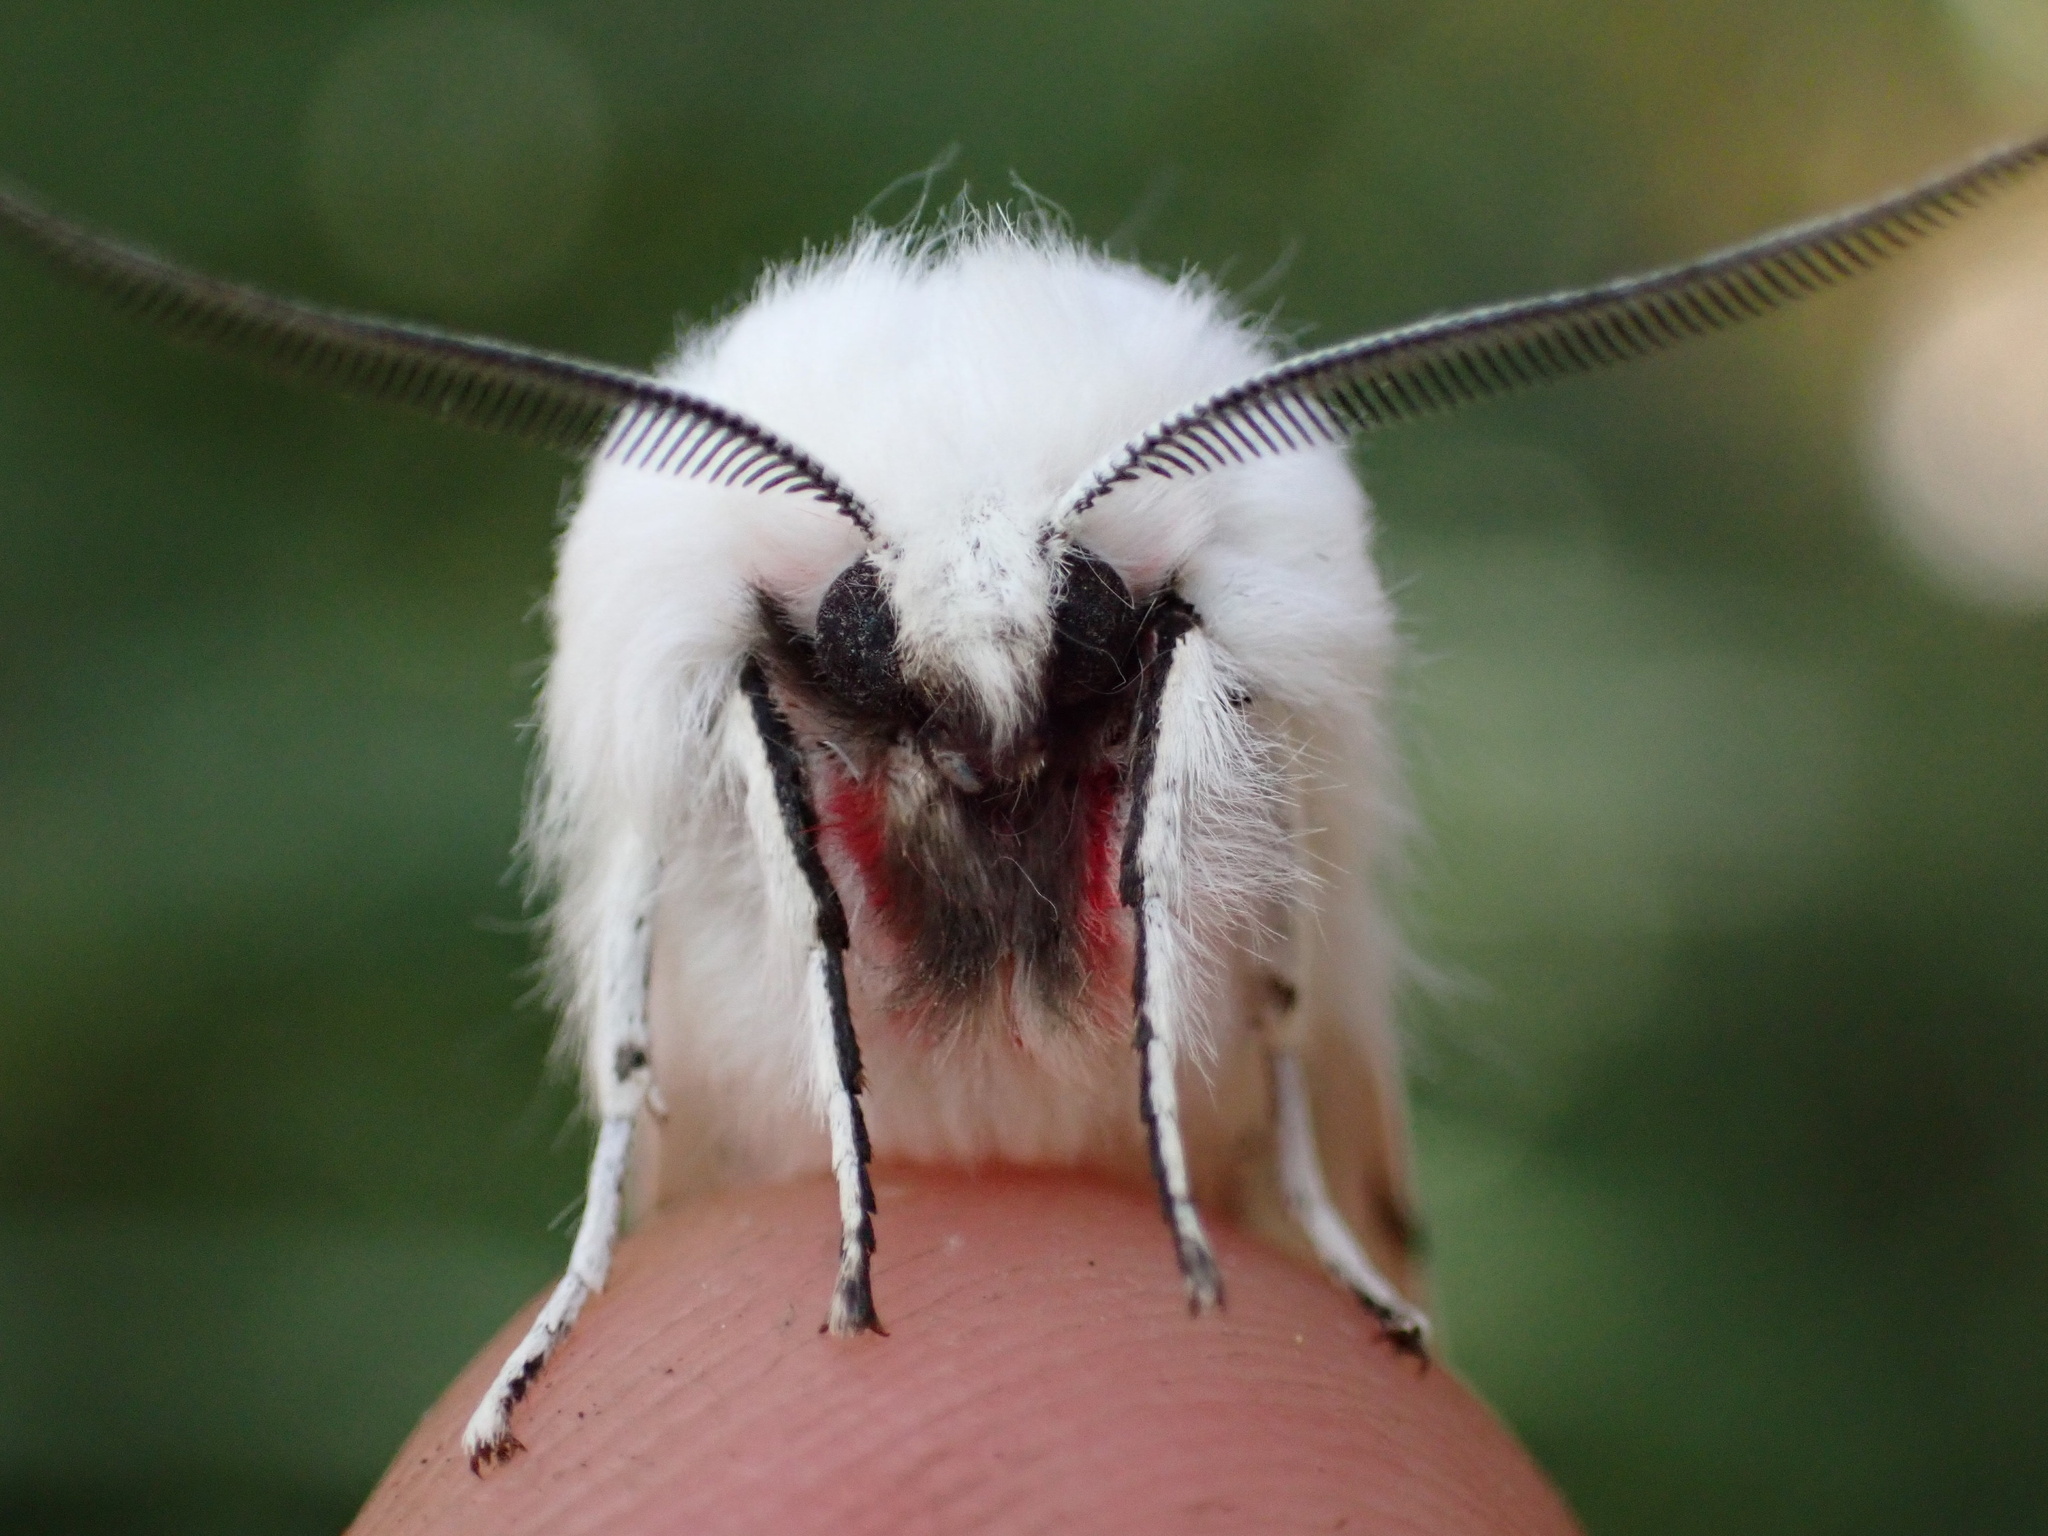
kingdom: Animalia
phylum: Arthropoda
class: Insecta
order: Lepidoptera
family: Erebidae
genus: Spilosoma
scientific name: Spilosoma vestalis
